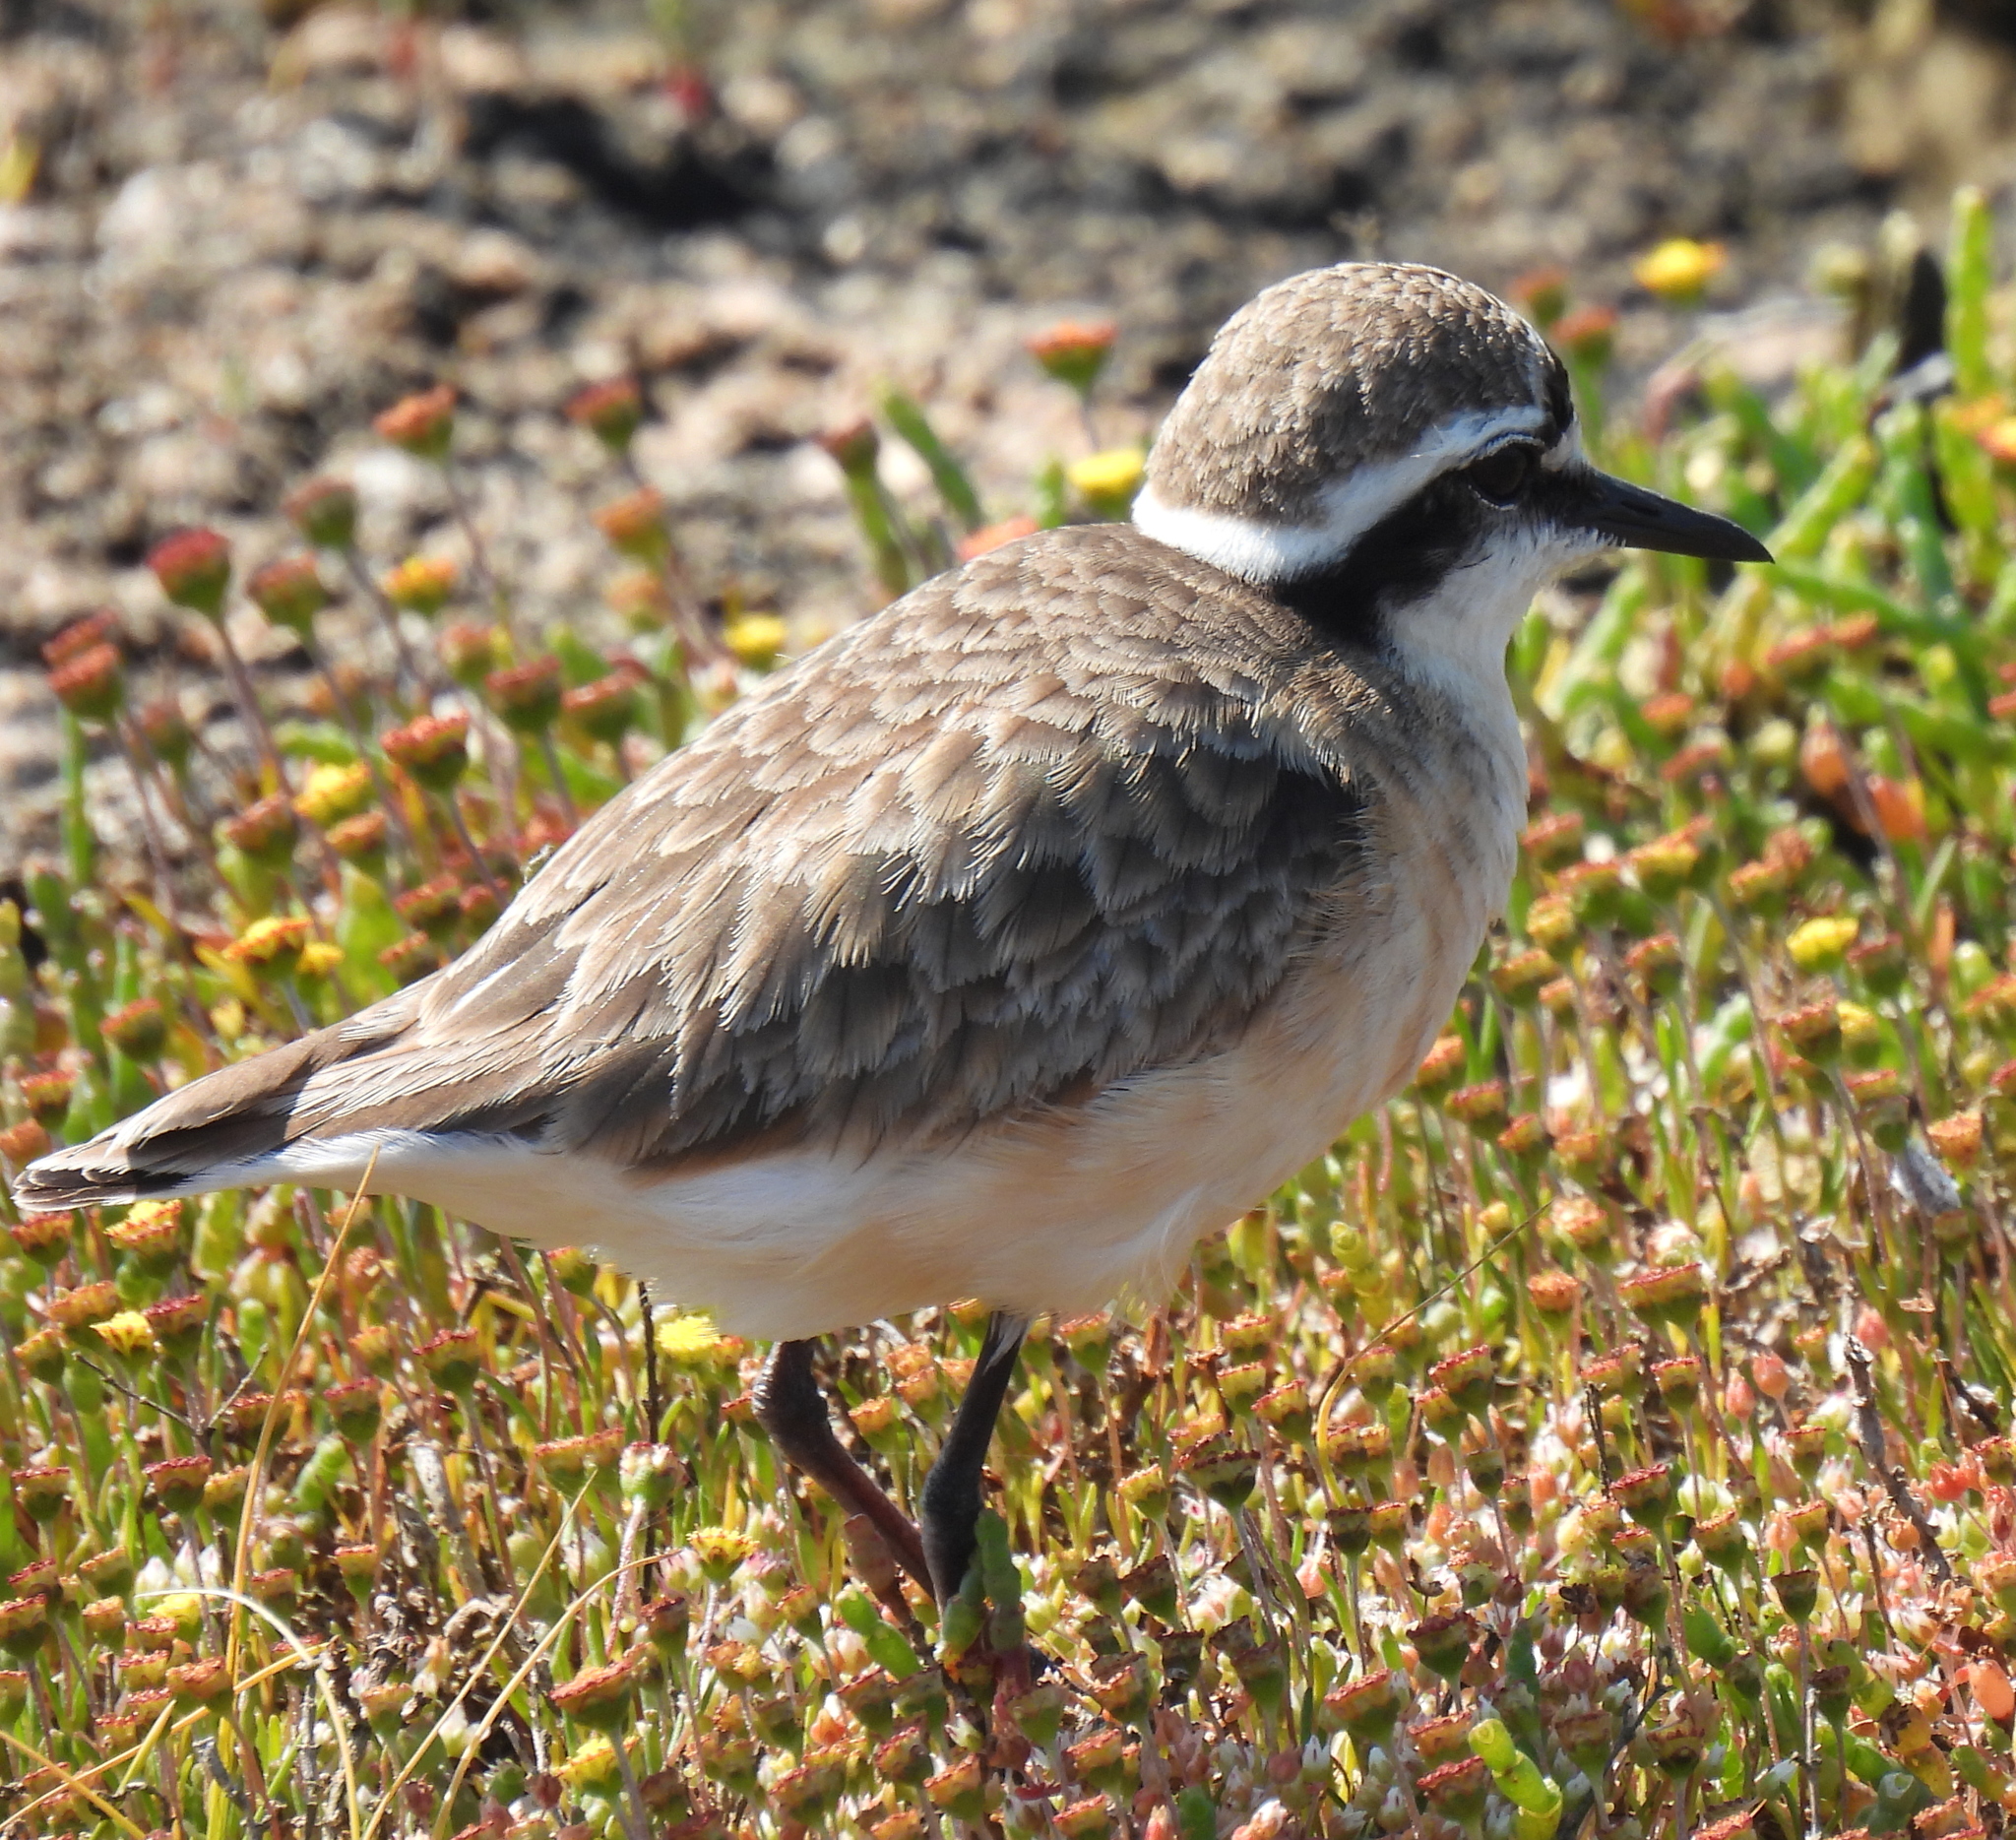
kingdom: Animalia
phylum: Chordata
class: Aves
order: Charadriiformes
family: Charadriidae
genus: Anarhynchus
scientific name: Anarhynchus
